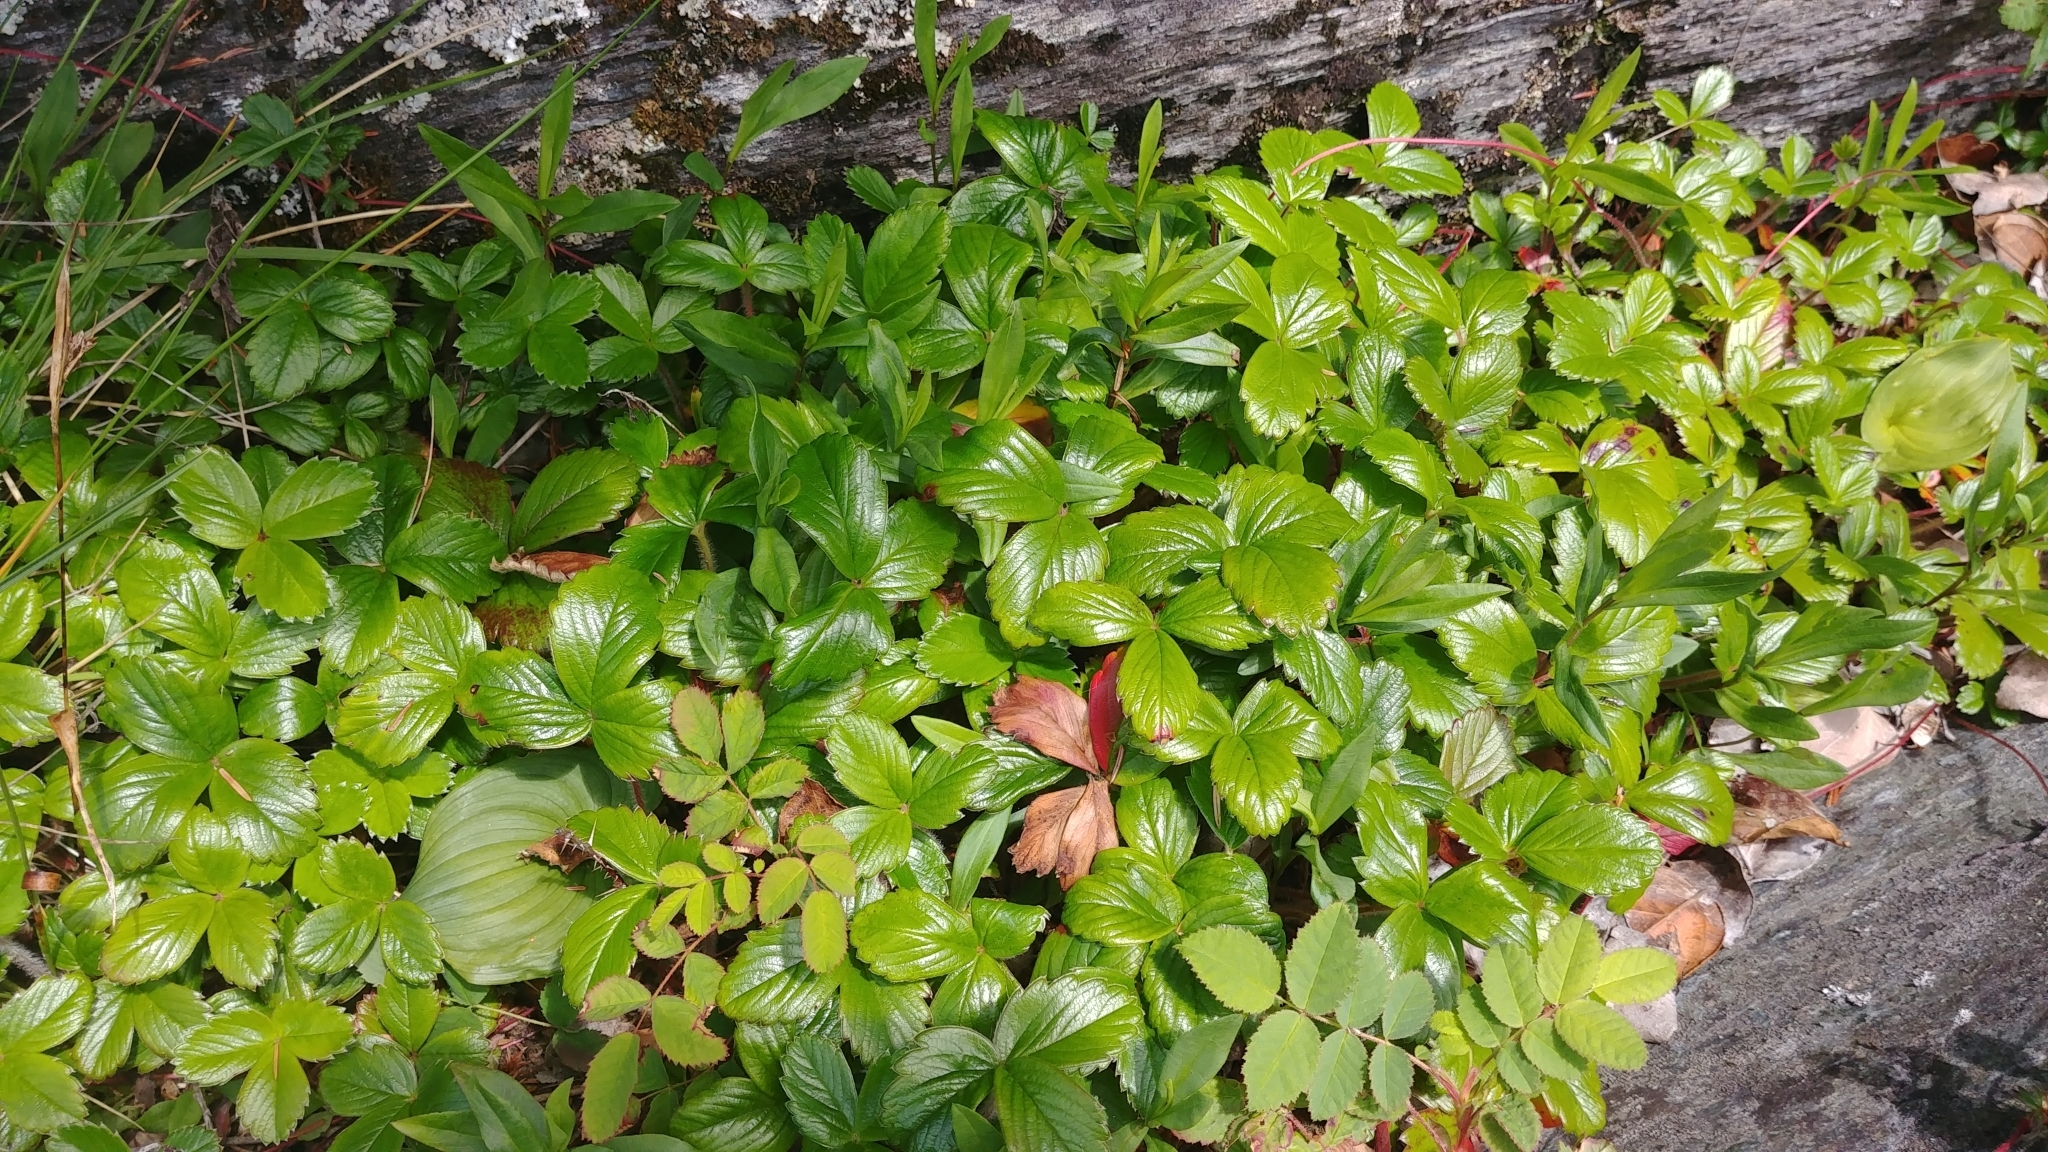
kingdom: Plantae
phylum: Tracheophyta
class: Magnoliopsida
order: Rosales
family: Rosaceae
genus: Fragaria
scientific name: Fragaria chiloensis
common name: Beach strawberry
